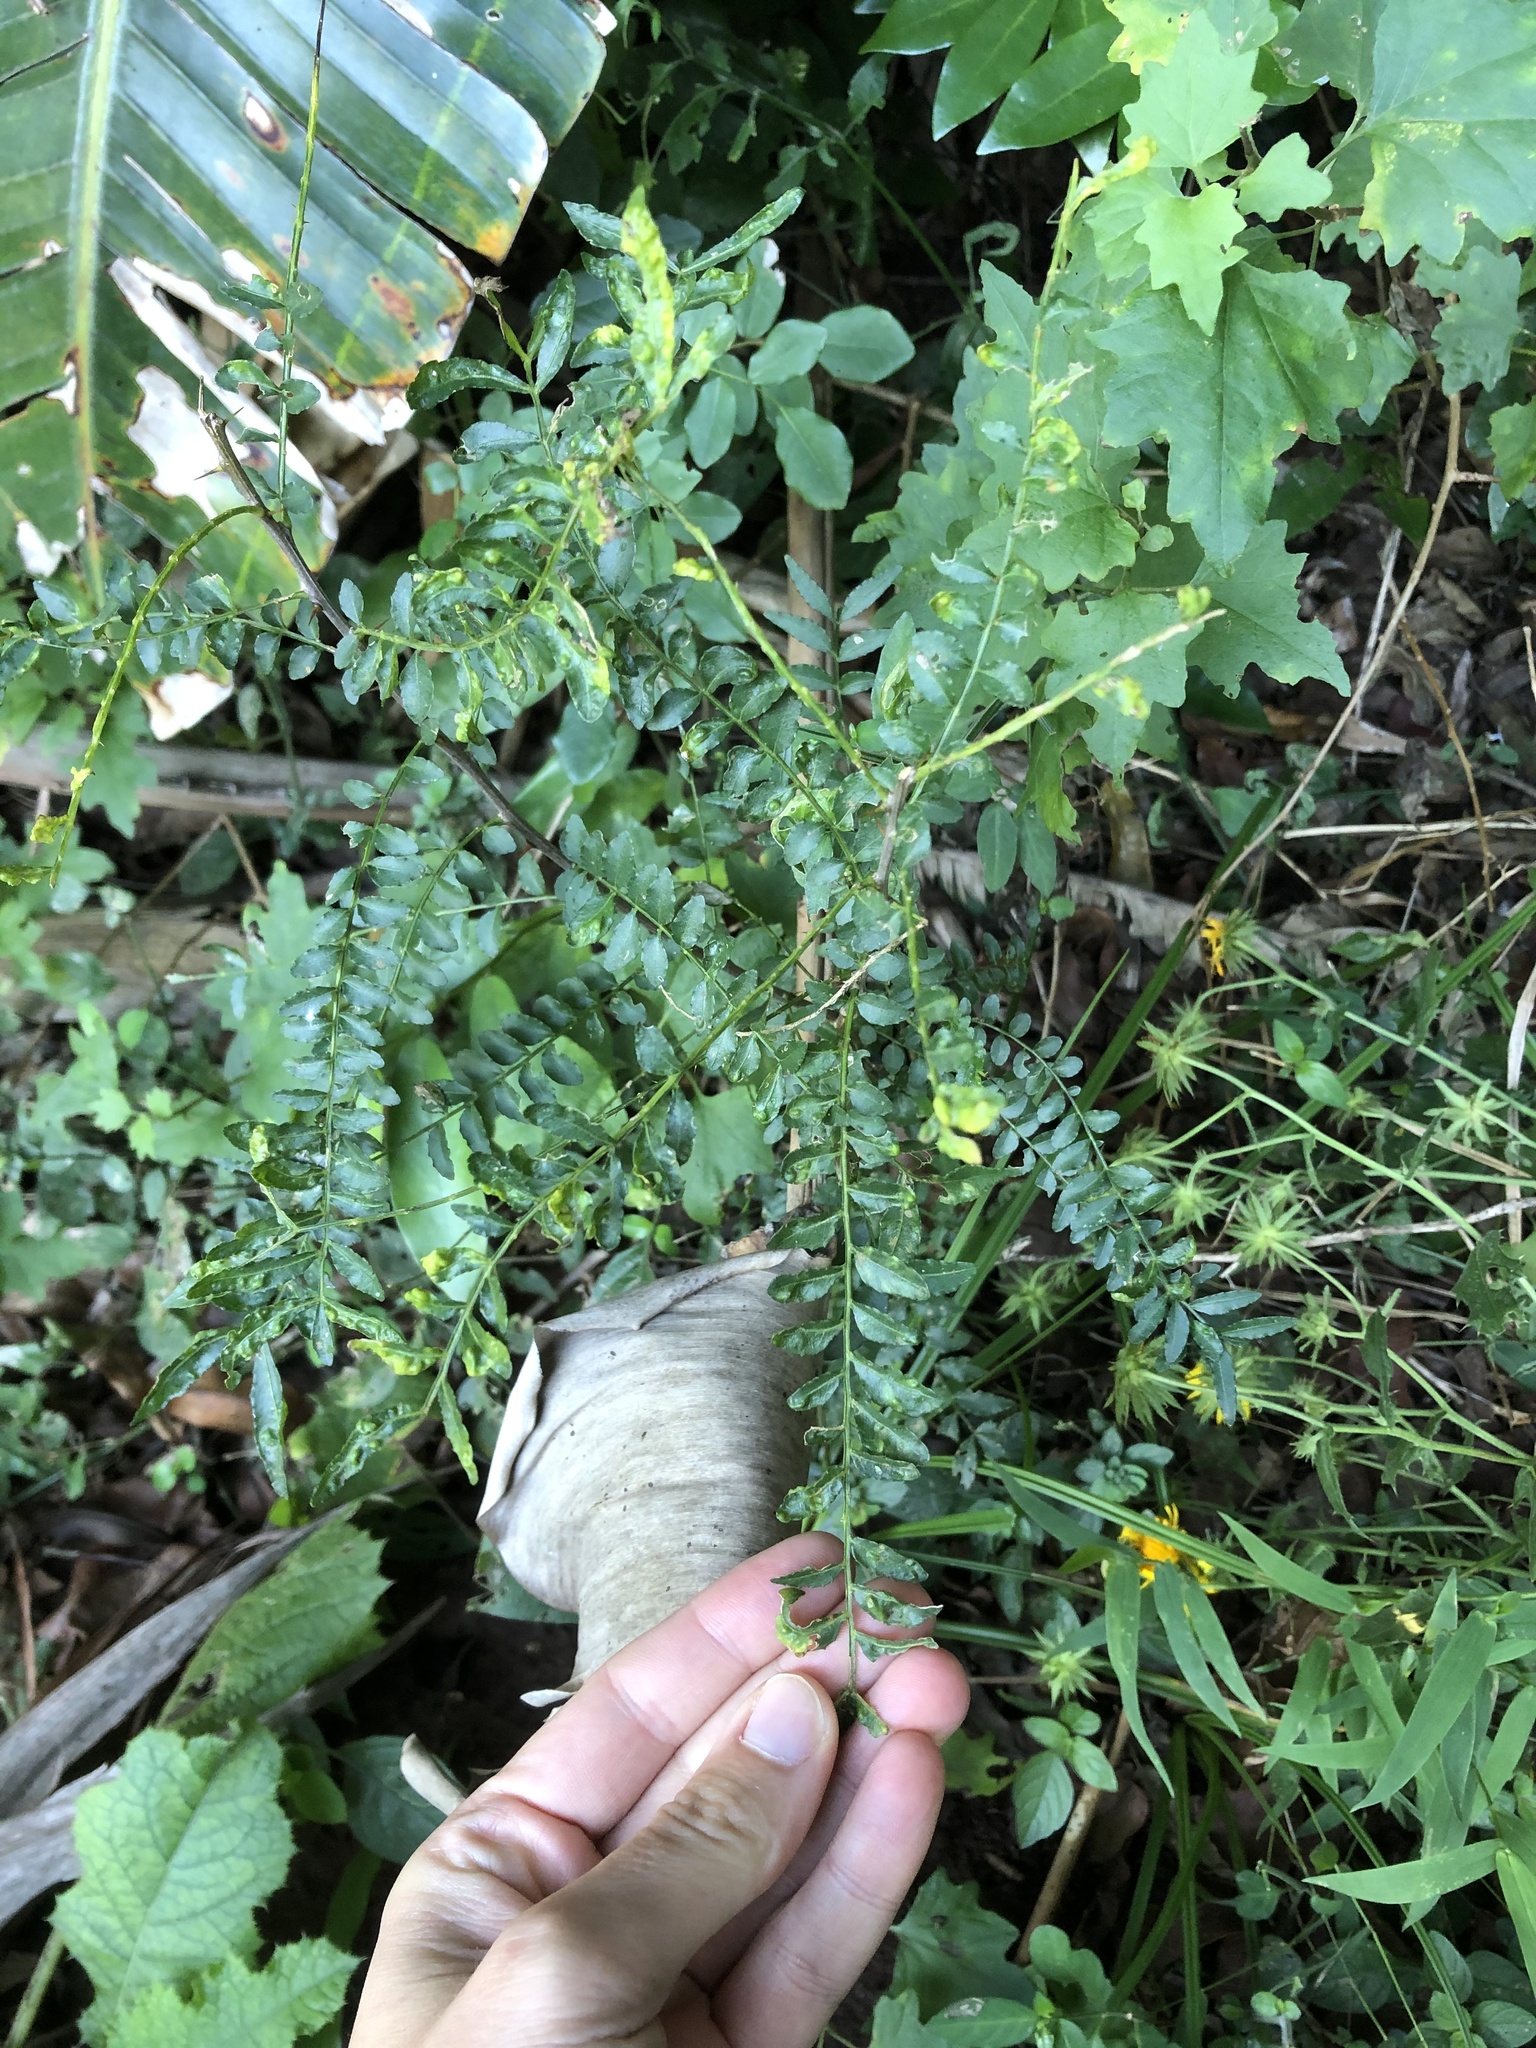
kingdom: Plantae
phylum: Tracheophyta
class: Magnoliopsida
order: Sapindales
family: Rutaceae
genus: Zanthoxylum
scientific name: Zanthoxylum capense
